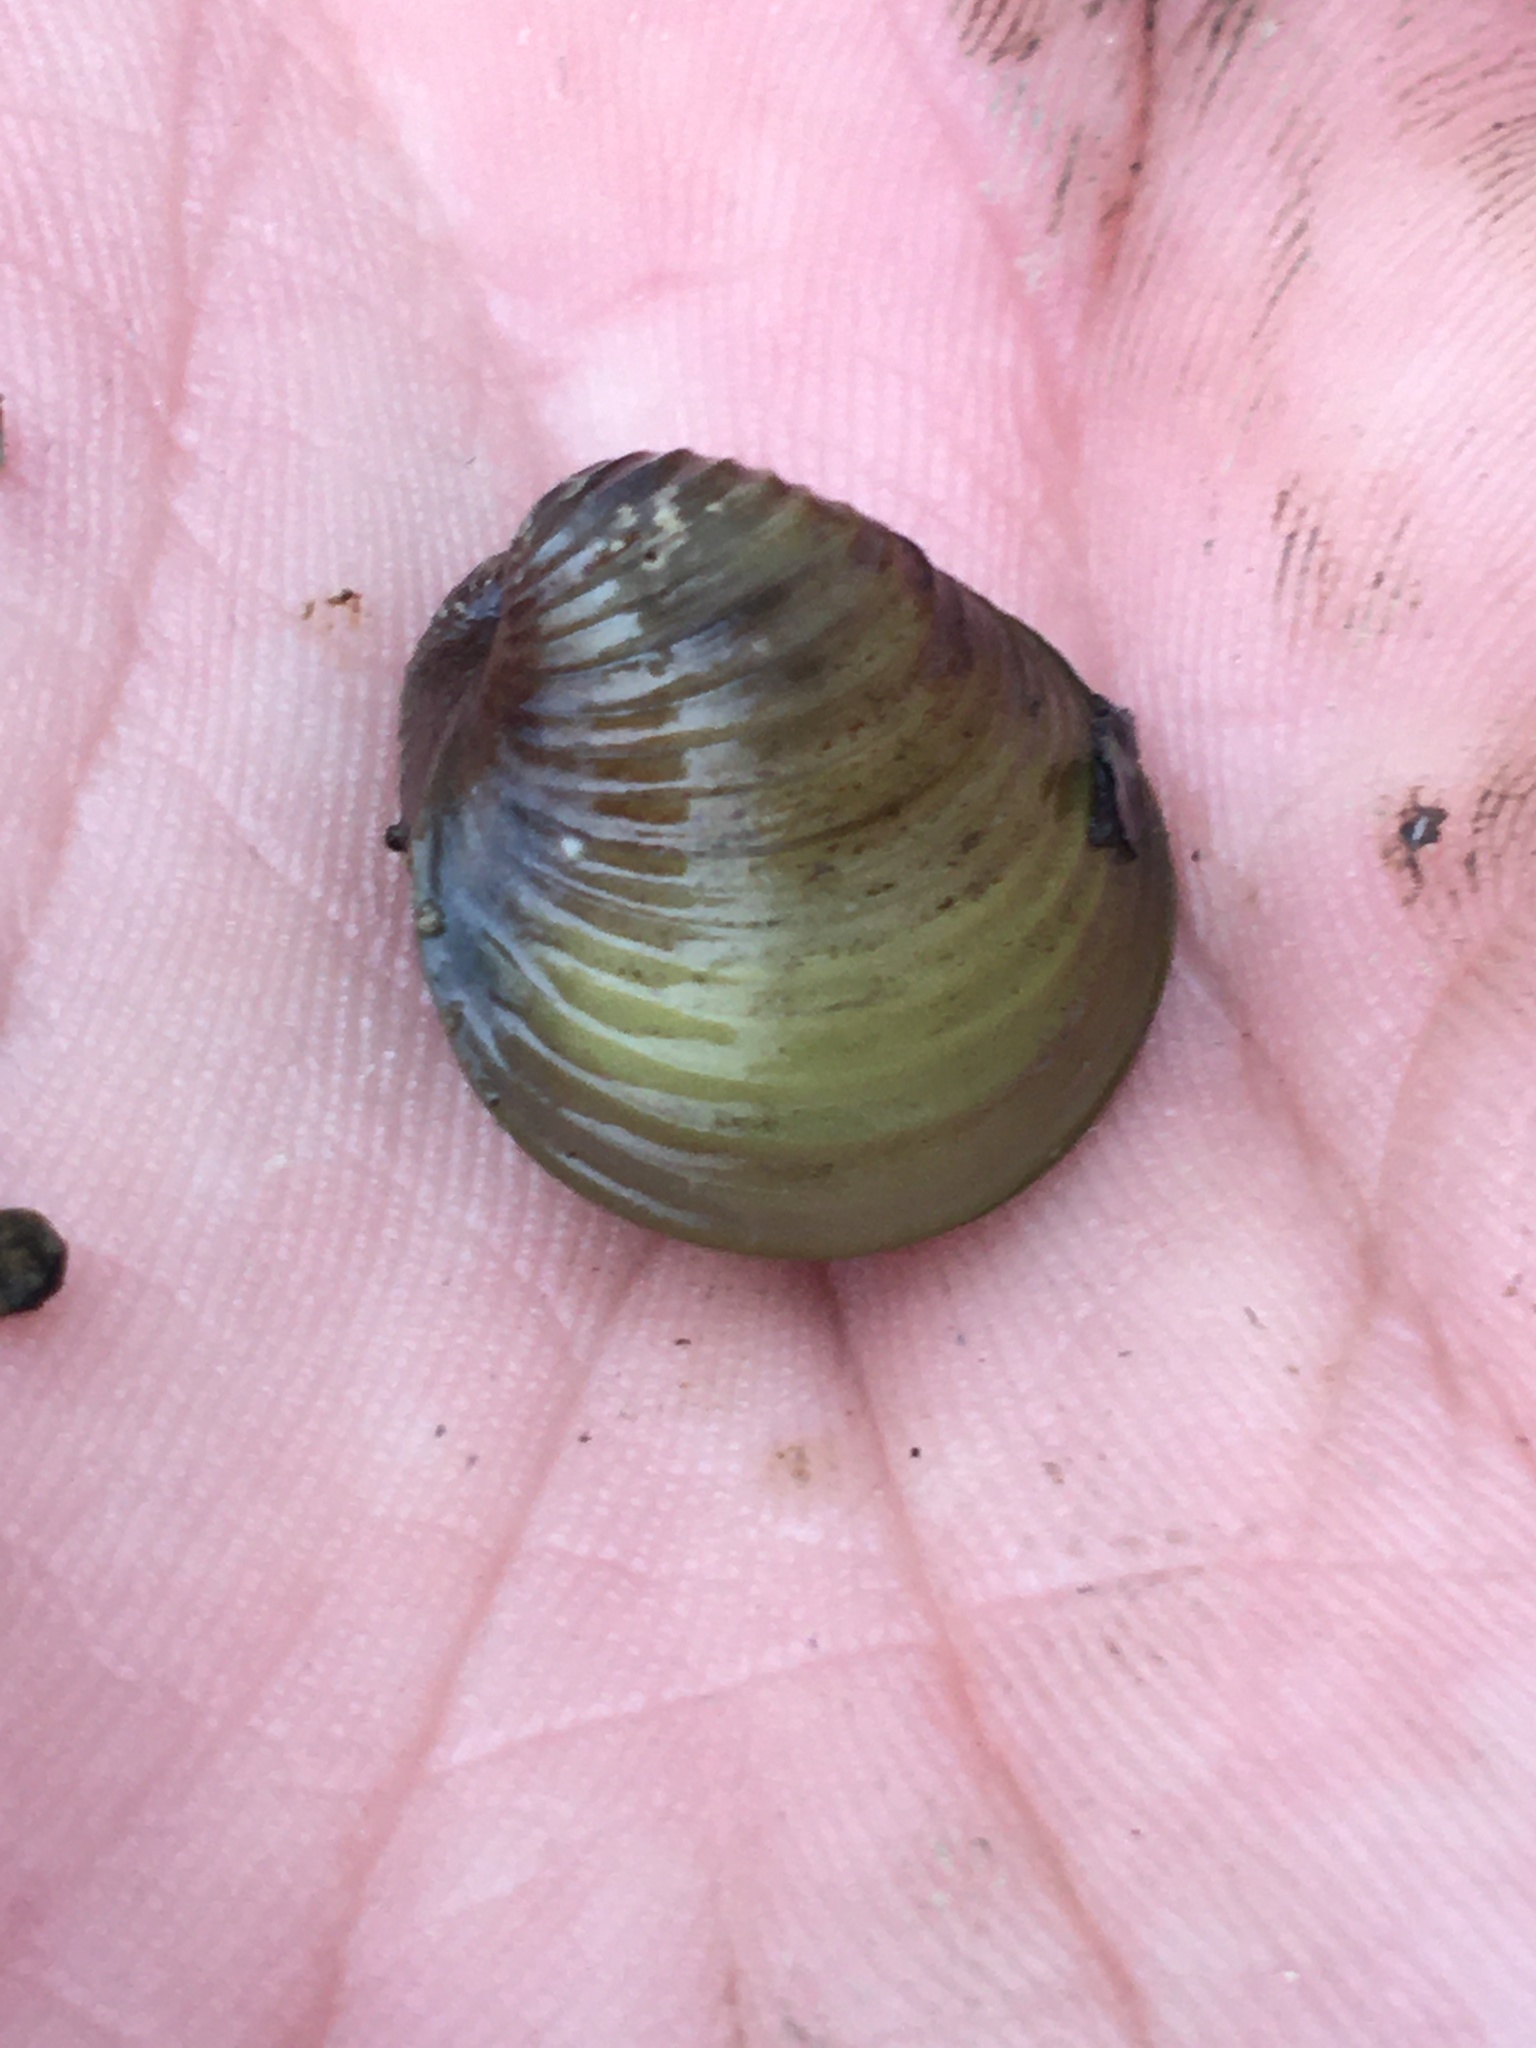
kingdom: Animalia
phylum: Mollusca
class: Bivalvia
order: Venerida
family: Cyrenidae
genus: Corbicula
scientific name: Corbicula fluminea
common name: Asian clam
